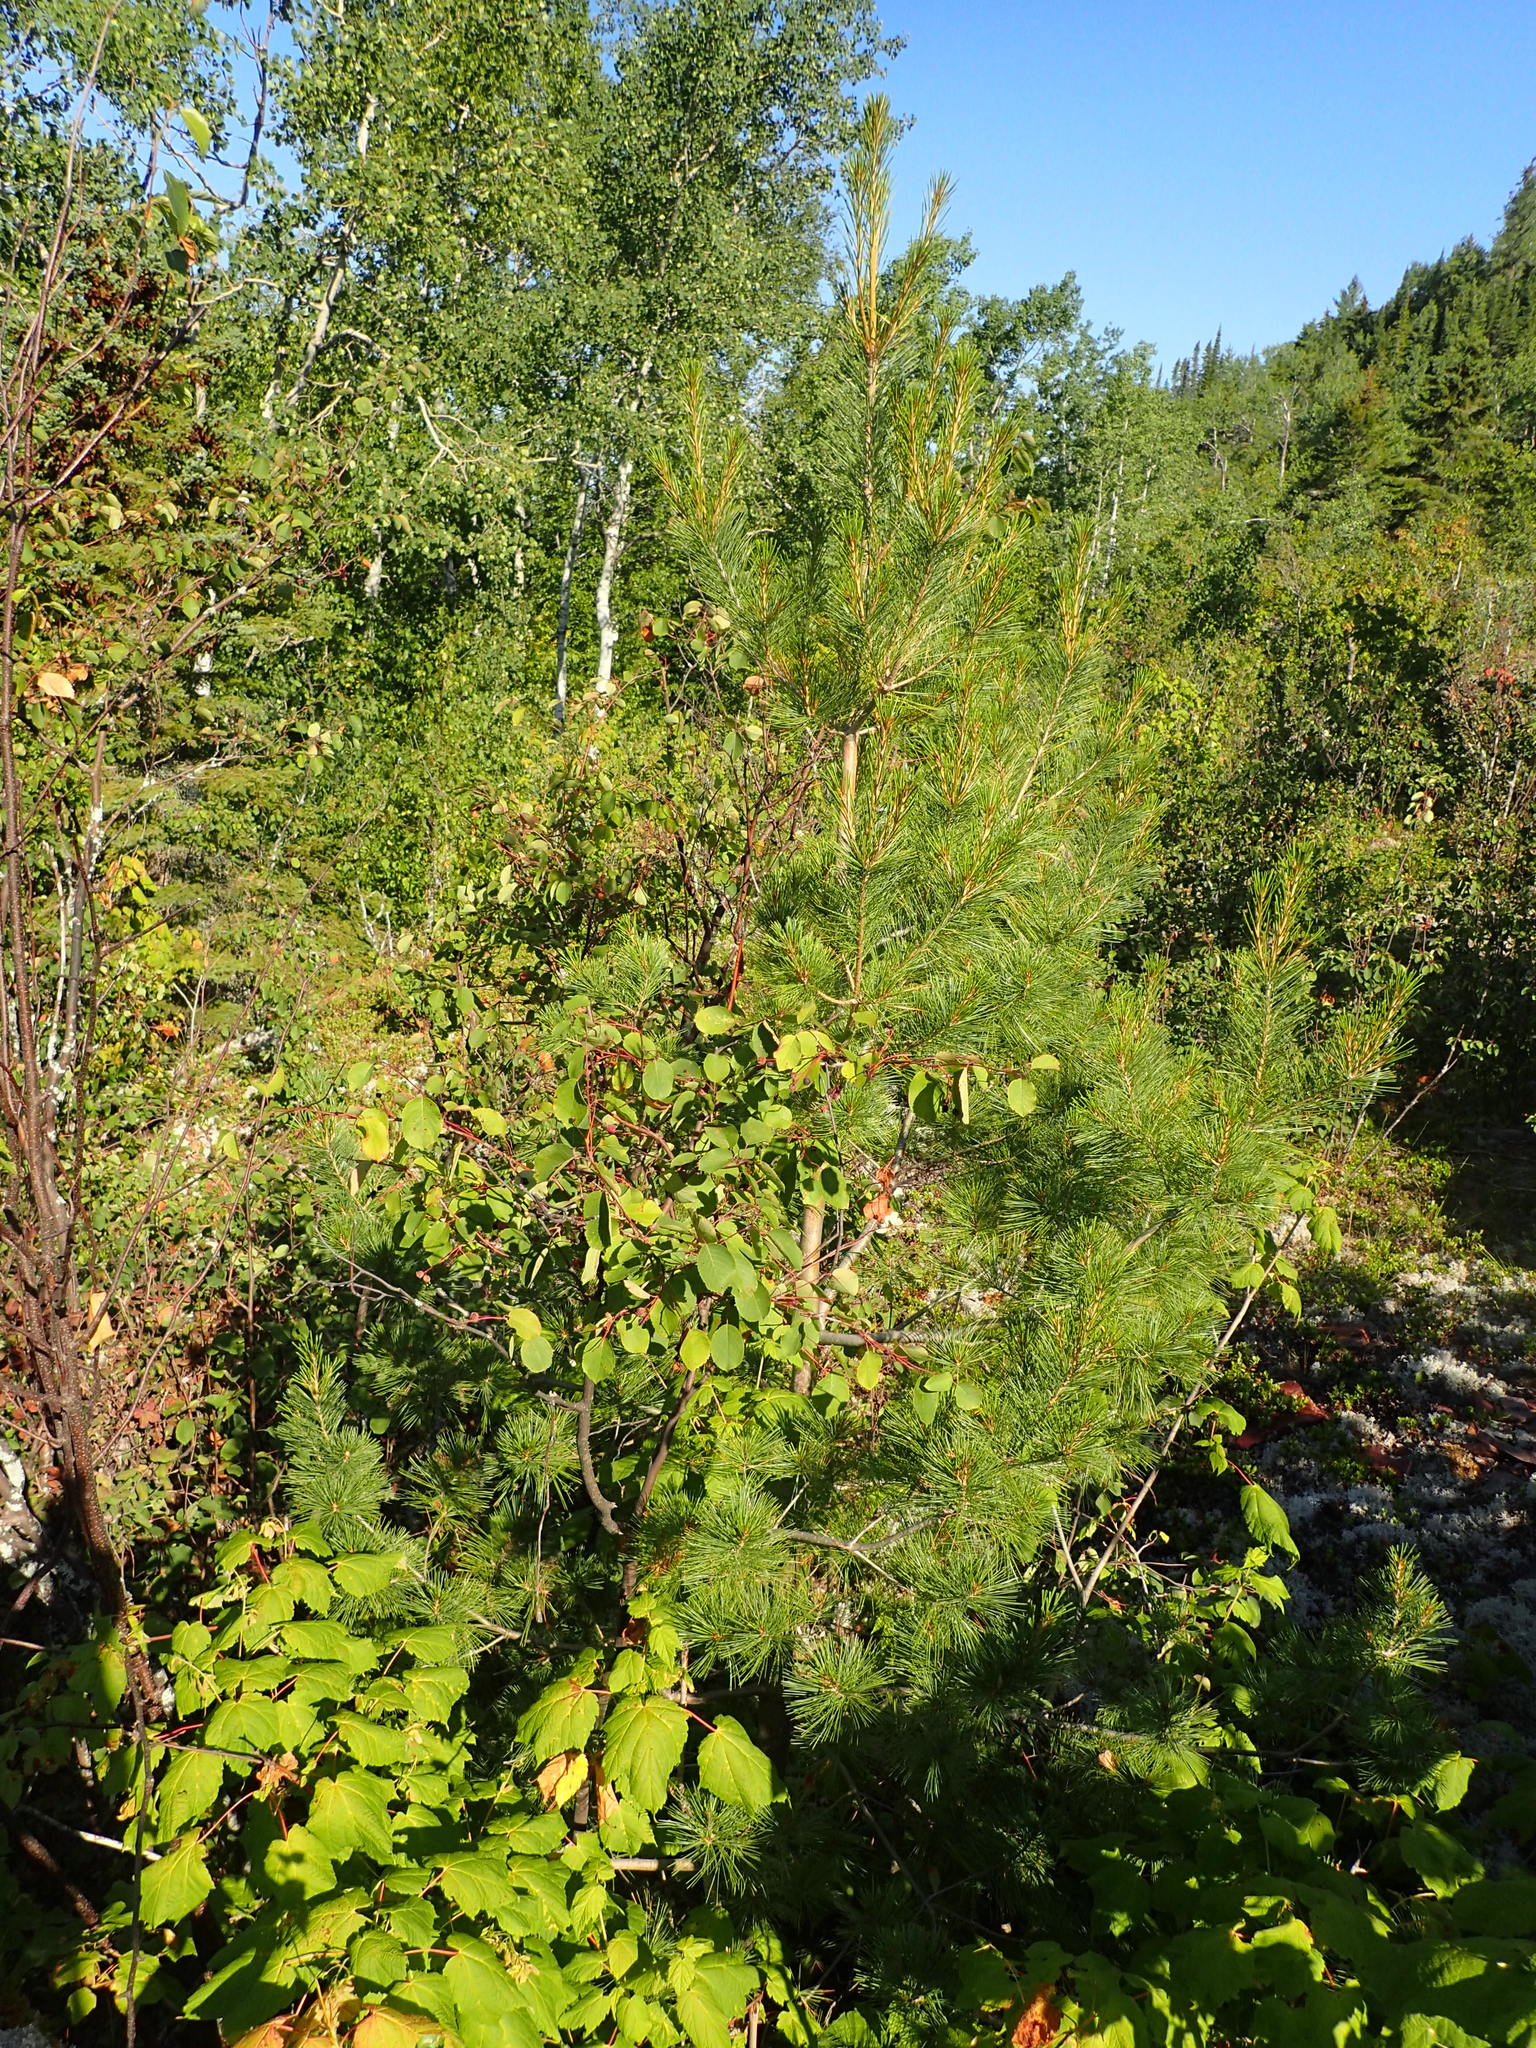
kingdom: Plantae
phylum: Tracheophyta
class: Pinopsida
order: Pinales
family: Pinaceae
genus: Pinus
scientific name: Pinus strobus
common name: Weymouth pine
